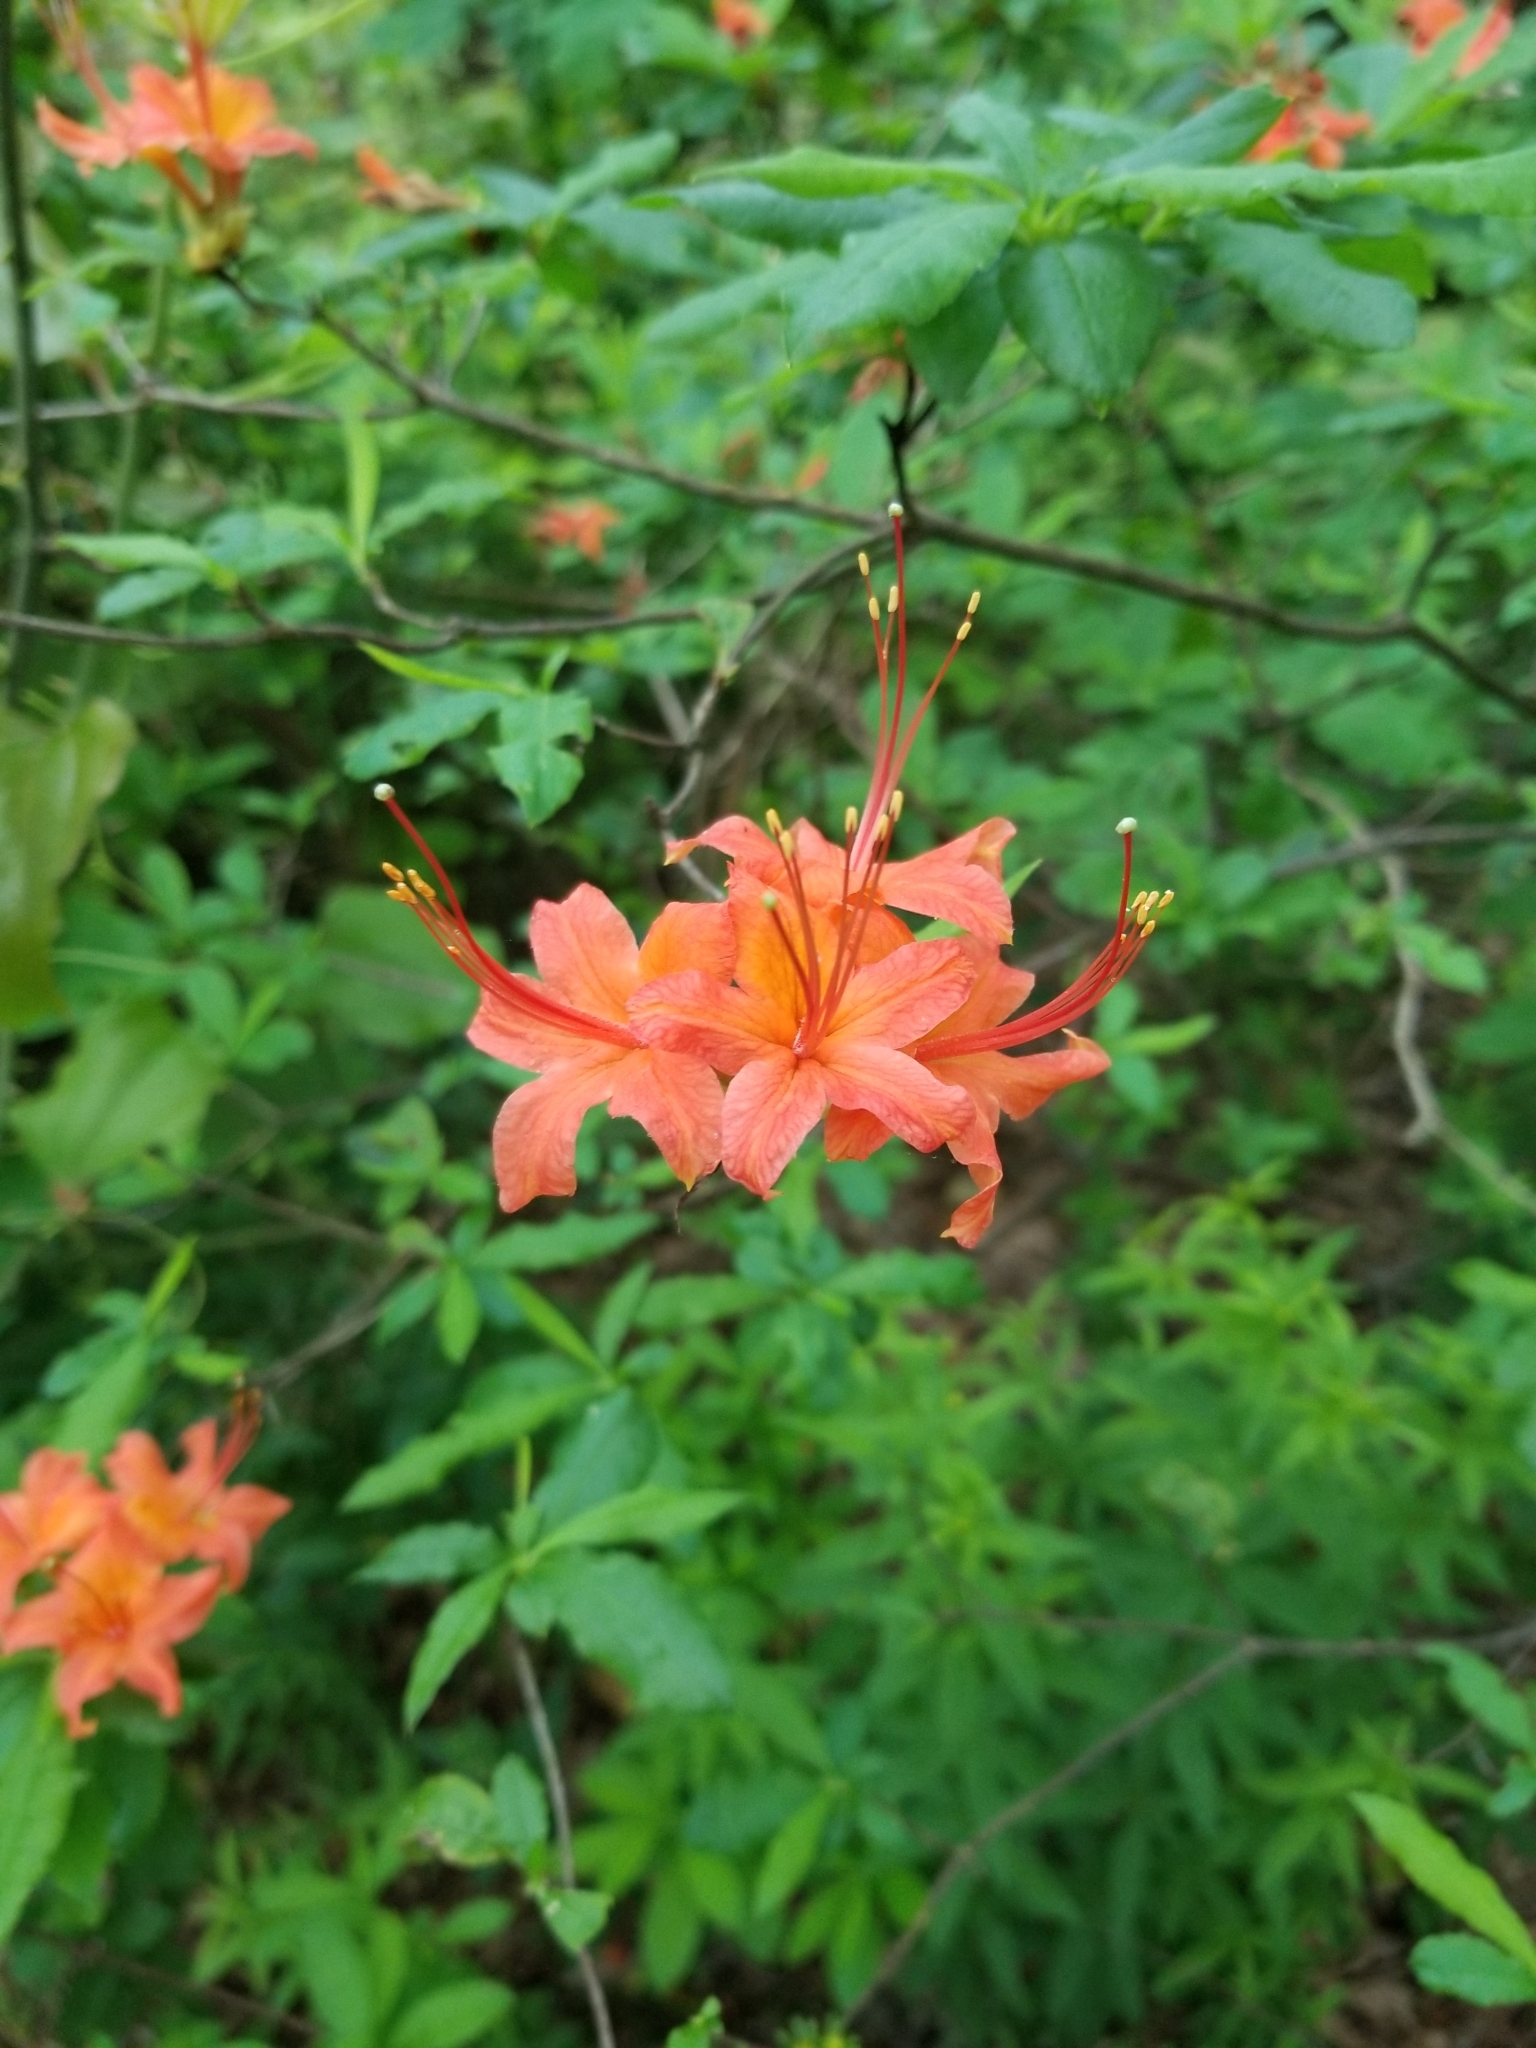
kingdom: Plantae
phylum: Tracheophyta
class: Magnoliopsida
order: Ericales
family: Ericaceae
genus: Rhododendron
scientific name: Rhododendron calendulaceum
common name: Flame azalea
